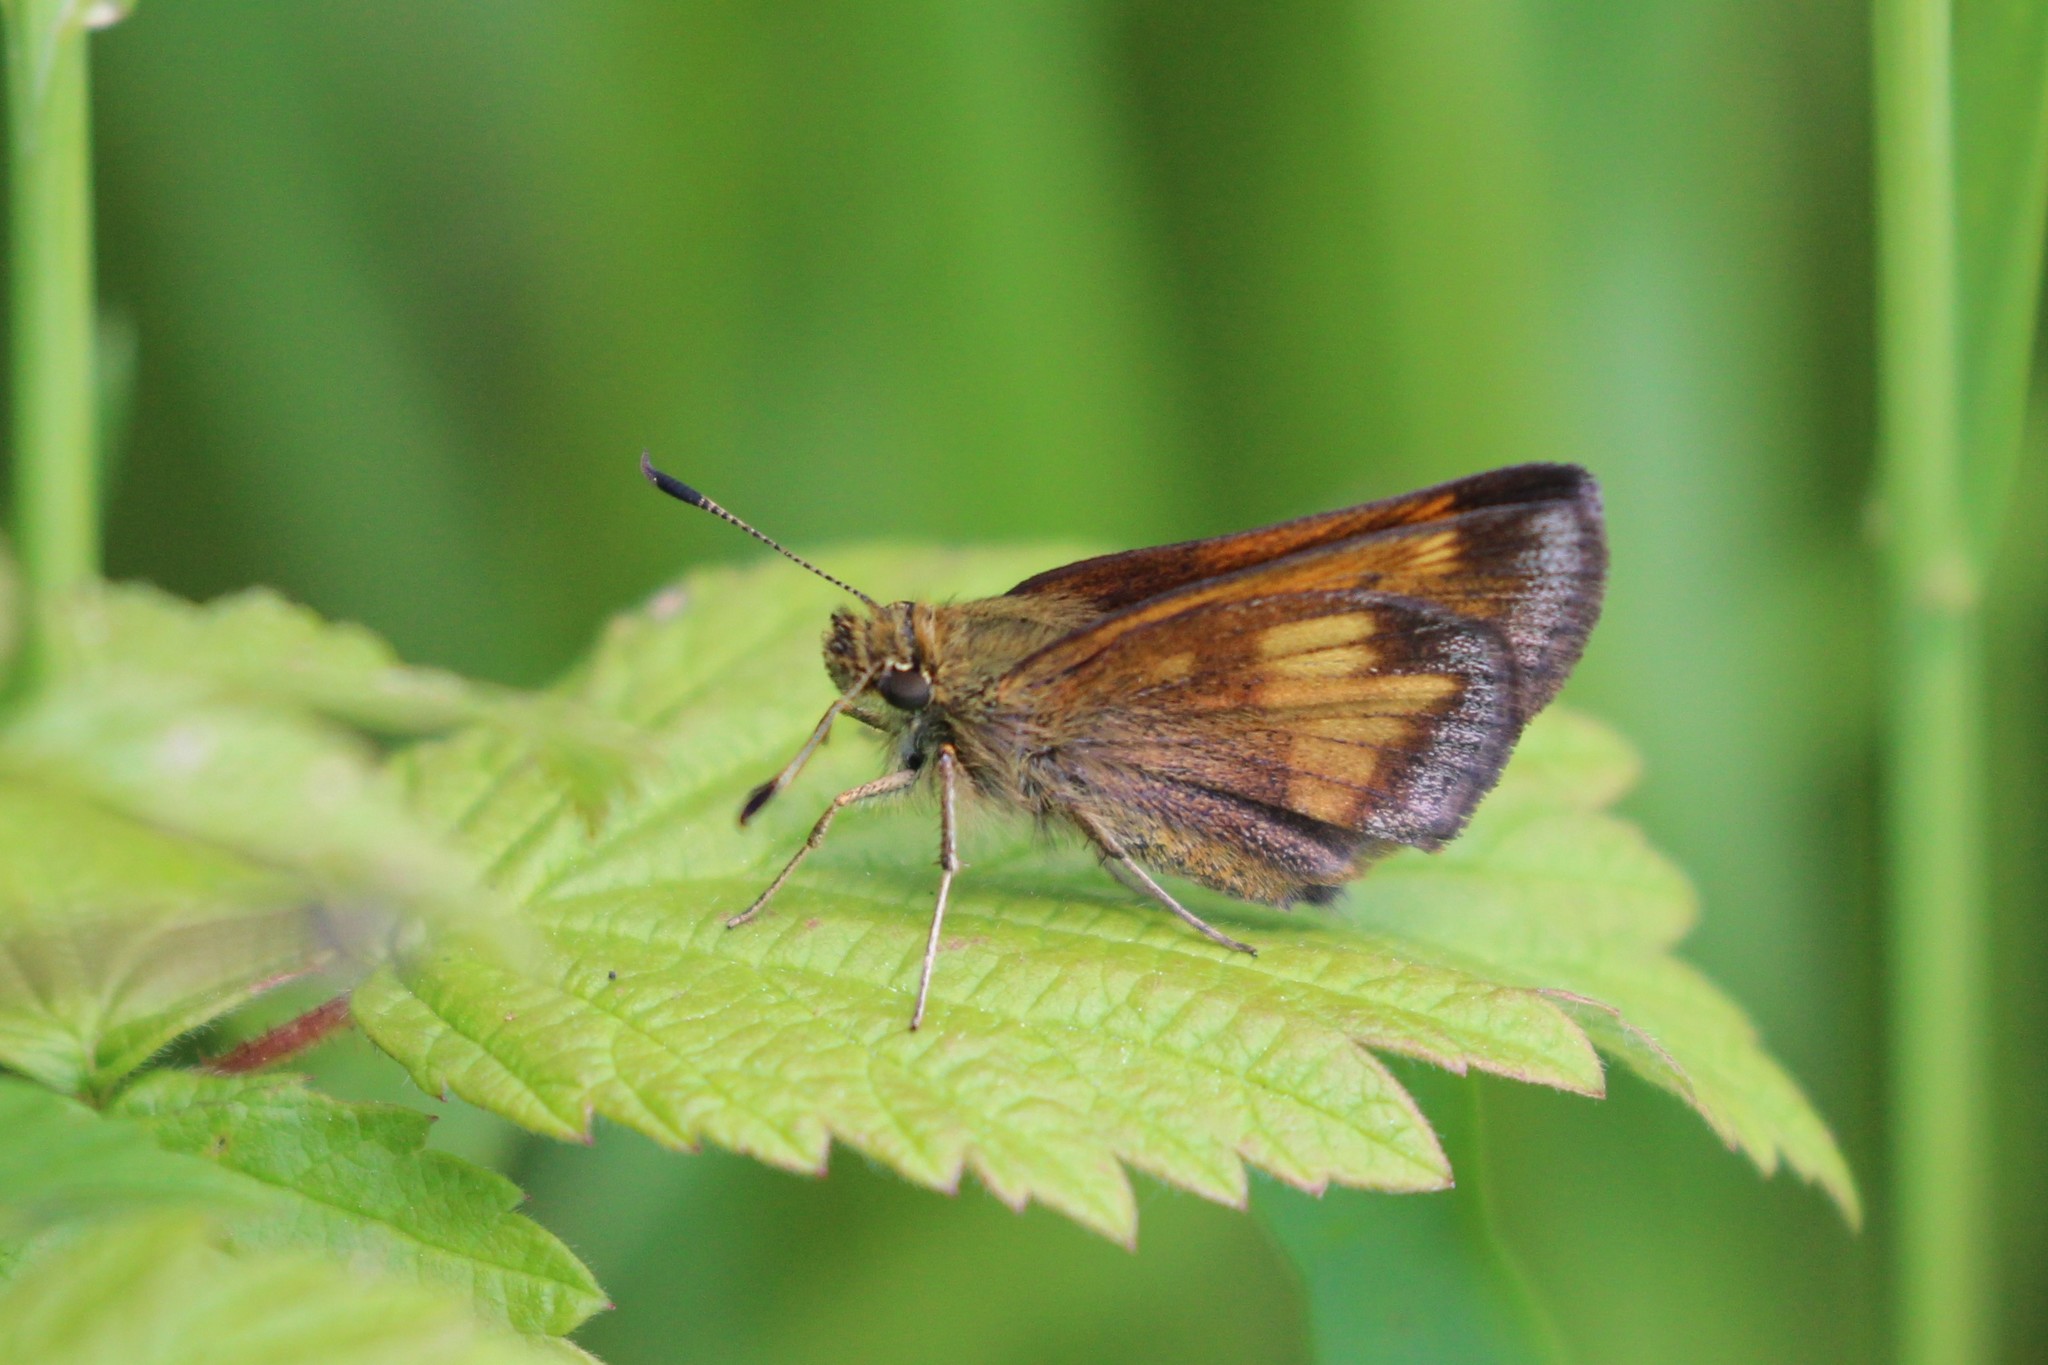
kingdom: Animalia
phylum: Arthropoda
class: Insecta
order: Lepidoptera
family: Hesperiidae
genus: Lon
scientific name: Lon hobomok
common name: Hobomok skipper
